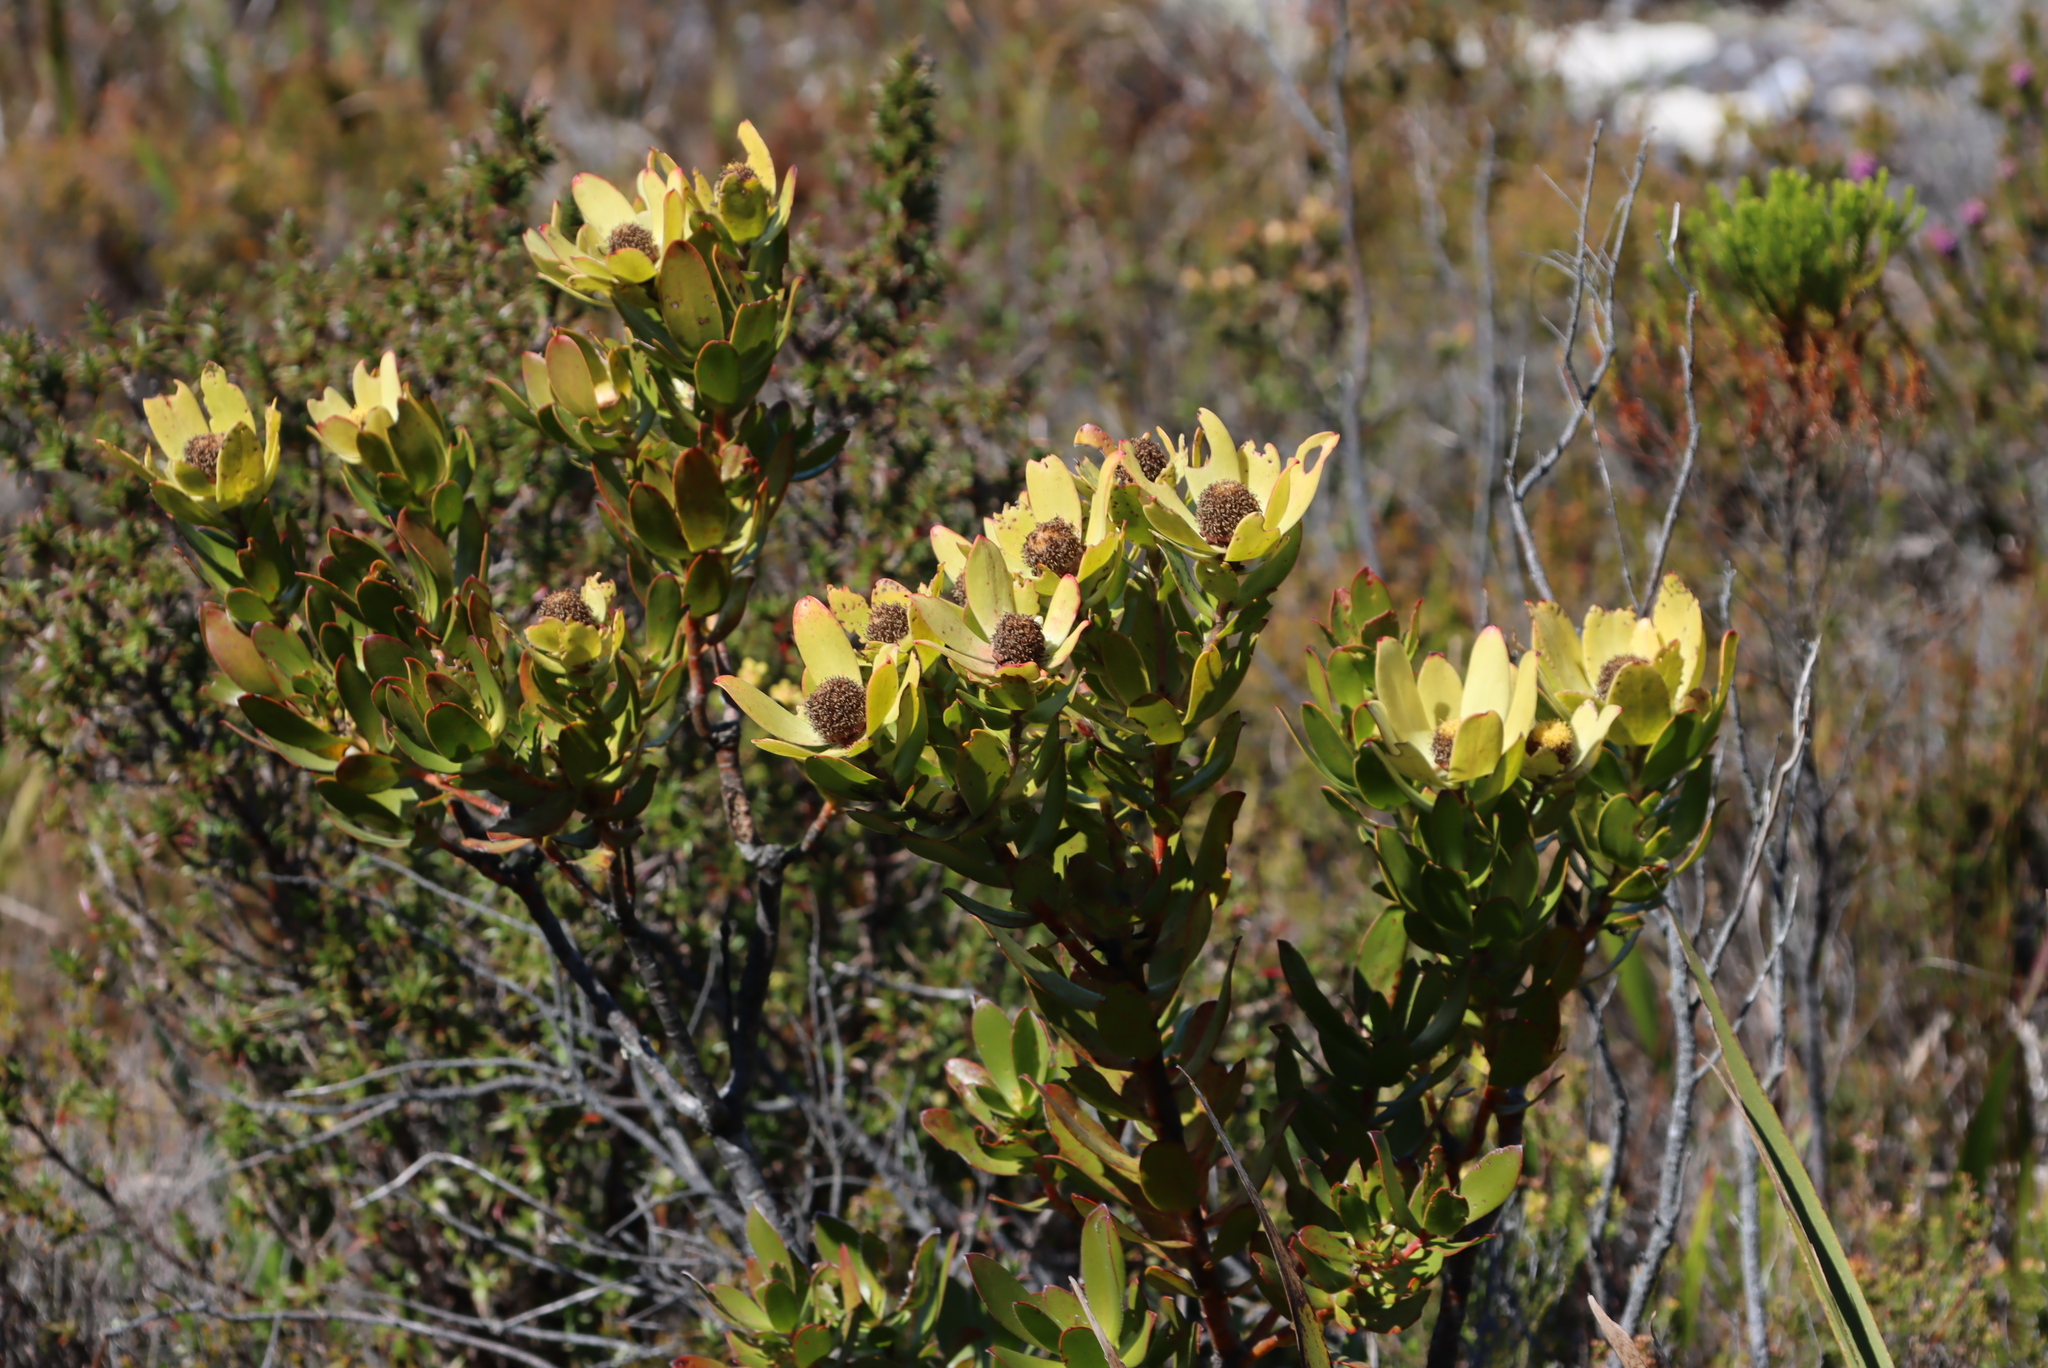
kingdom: Plantae
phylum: Tracheophyta
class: Magnoliopsida
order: Proteales
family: Proteaceae
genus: Leucadendron
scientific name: Leucadendron strobilinum
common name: Mountain rose
